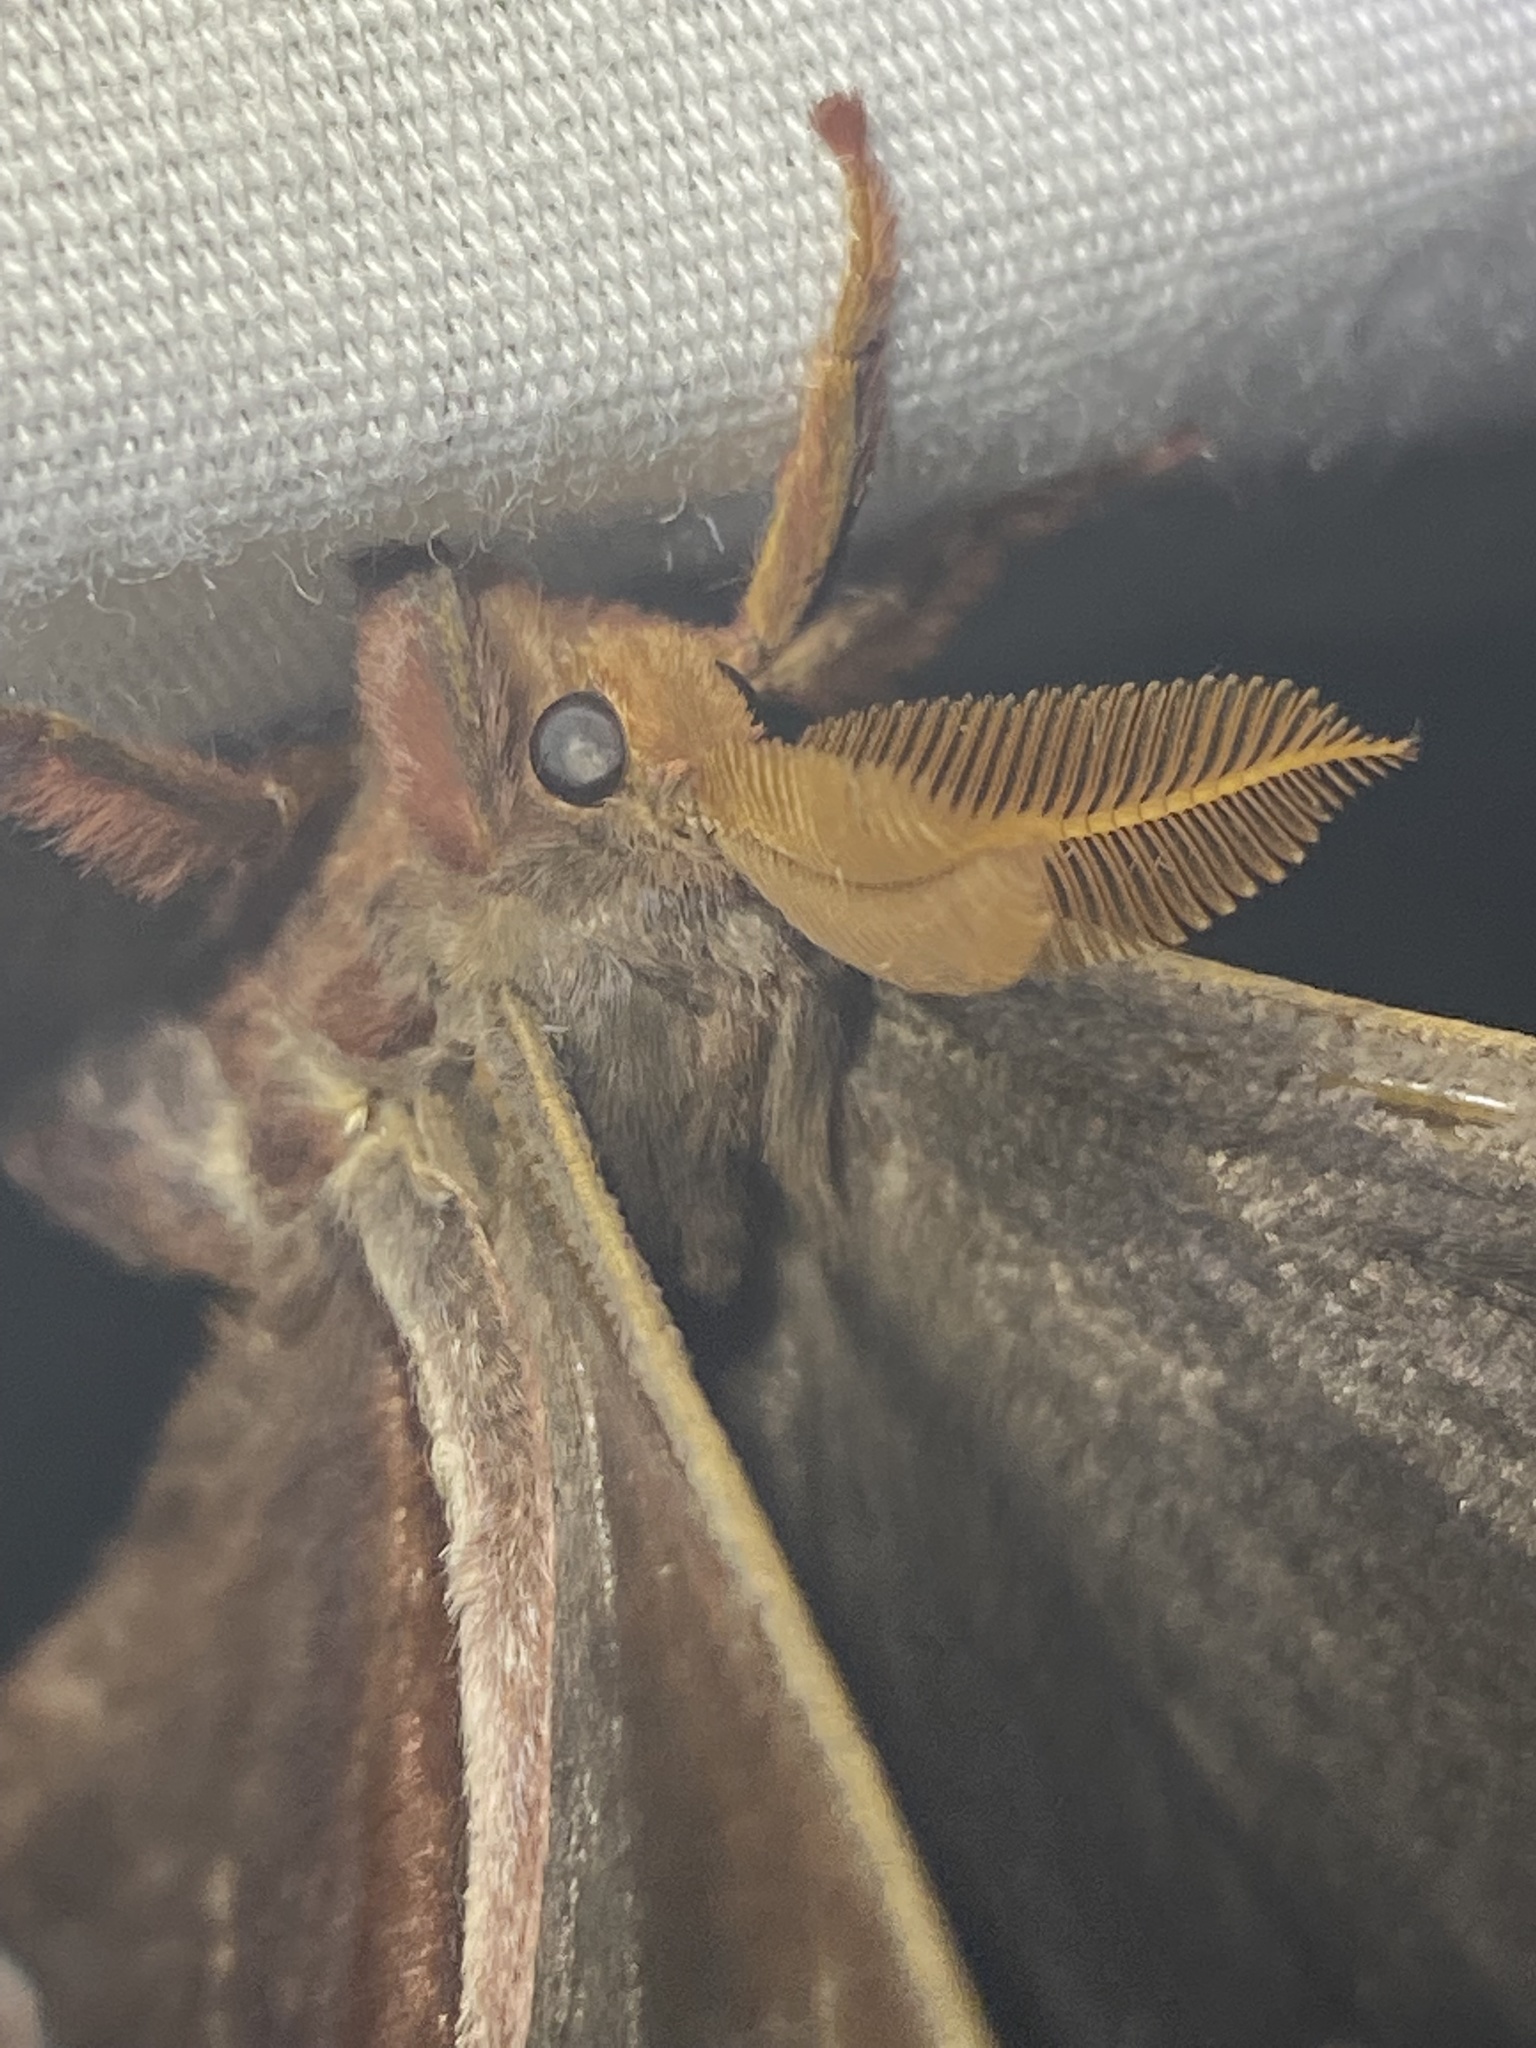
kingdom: Animalia
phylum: Arthropoda
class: Insecta
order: Lepidoptera
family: Saturniidae
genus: Callosamia
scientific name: Callosamia angulifera
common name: Tulip tree silkmoth
